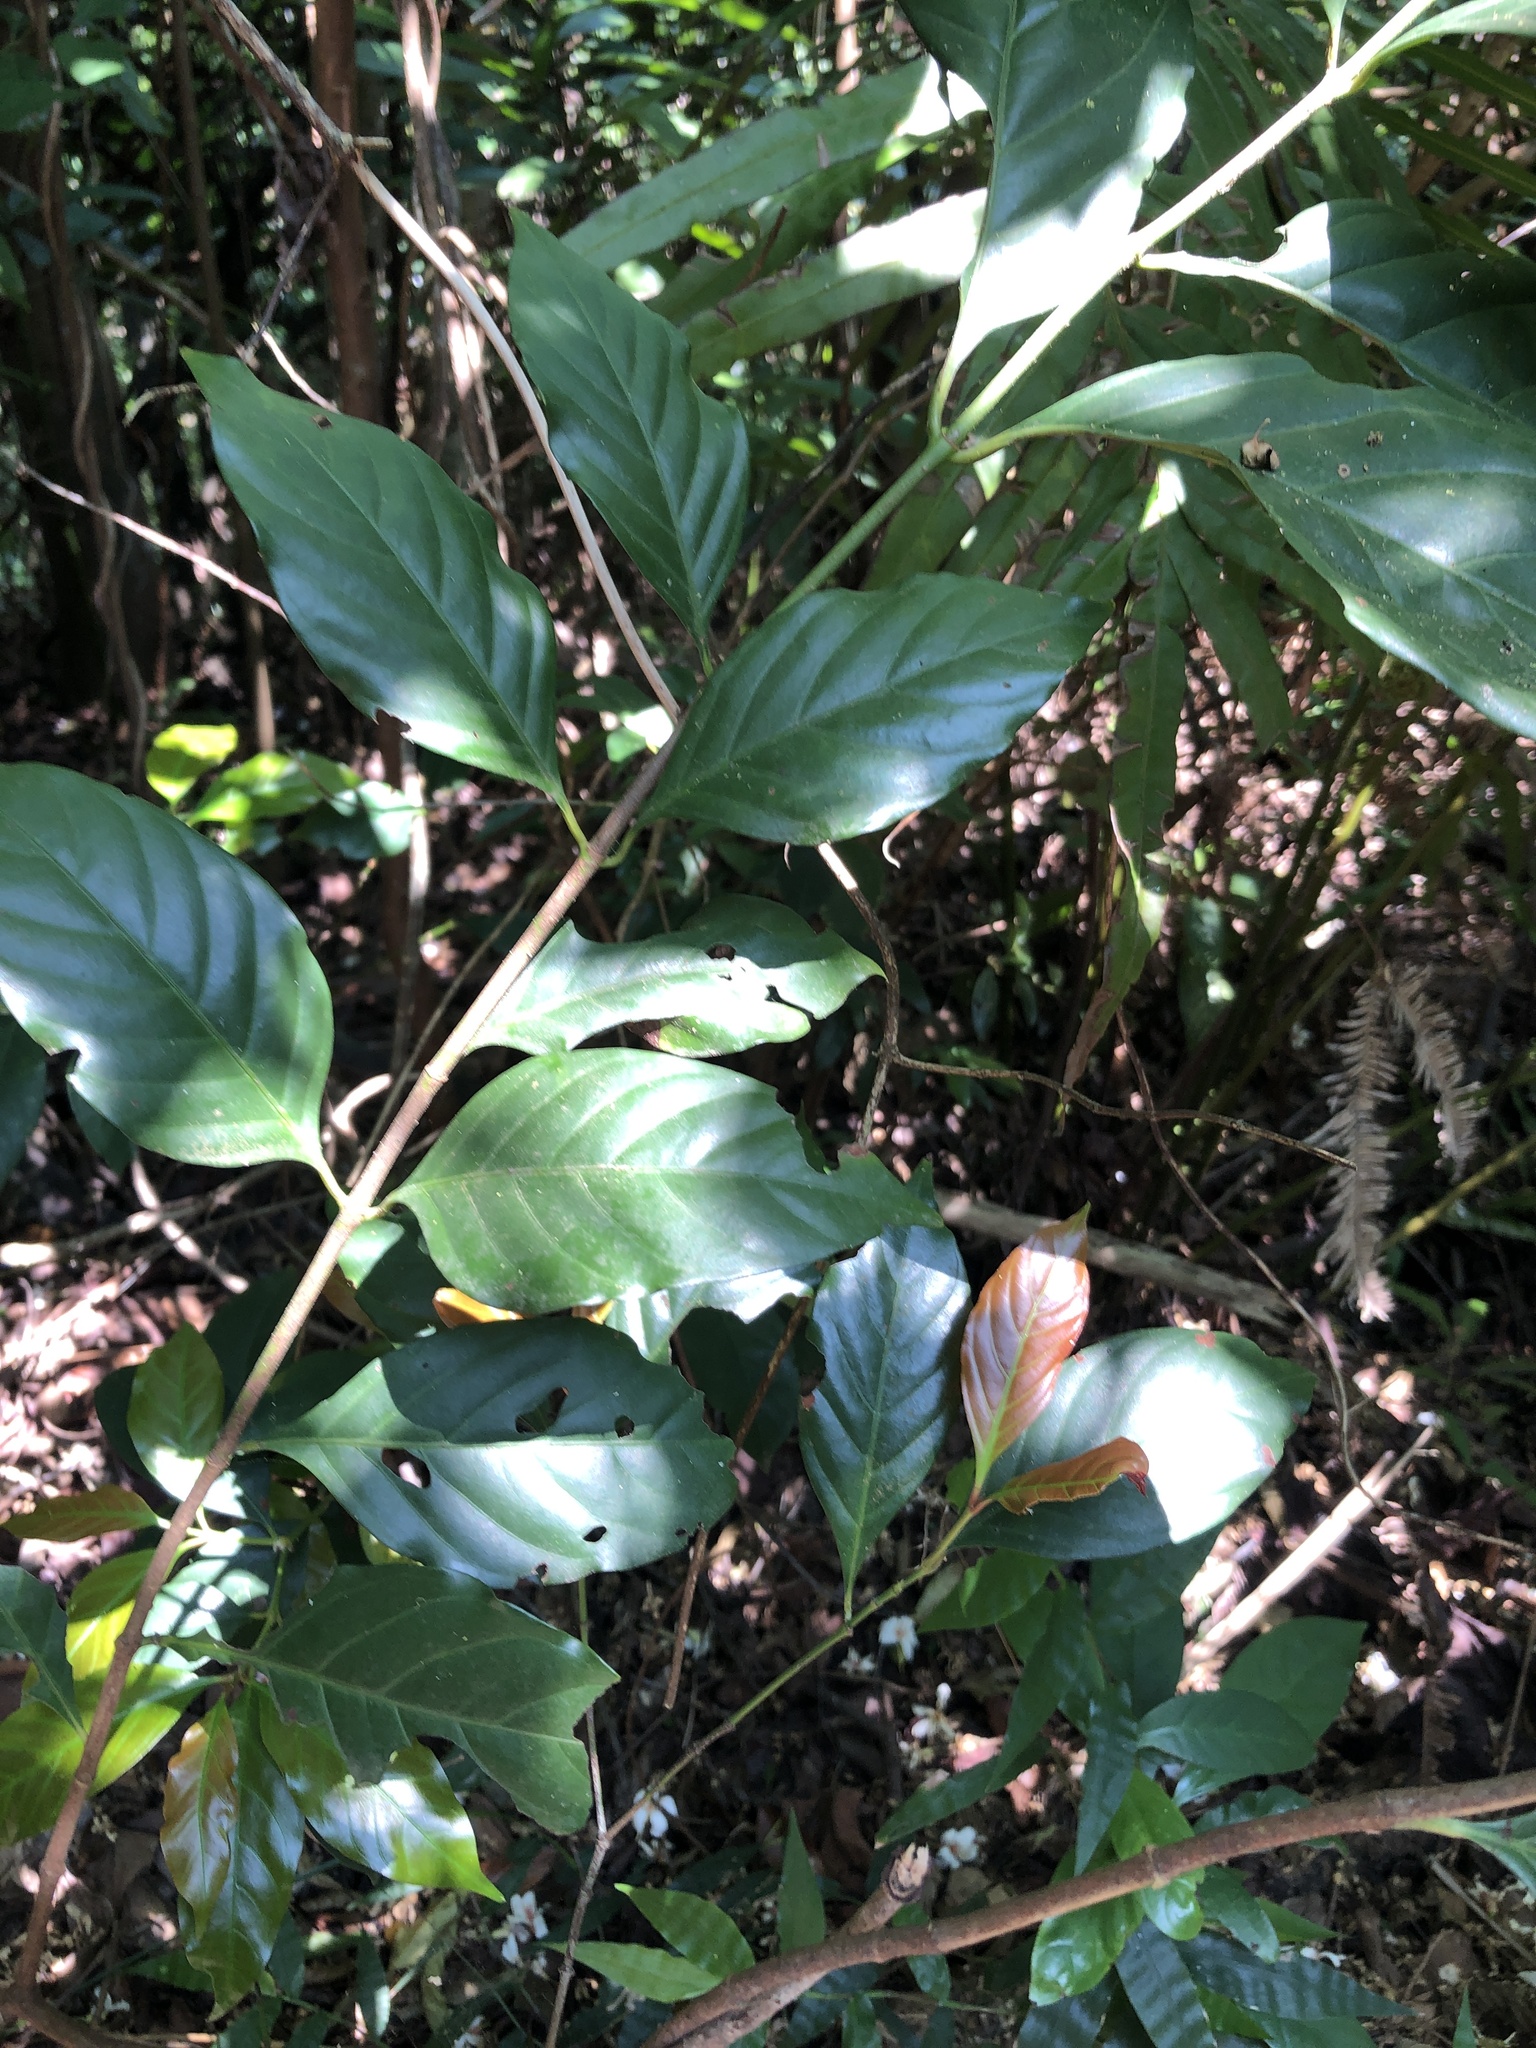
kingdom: Plantae
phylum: Tracheophyta
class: Magnoliopsida
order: Gentianales
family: Rubiaceae
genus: Aidia
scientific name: Aidia cochinchinensis
